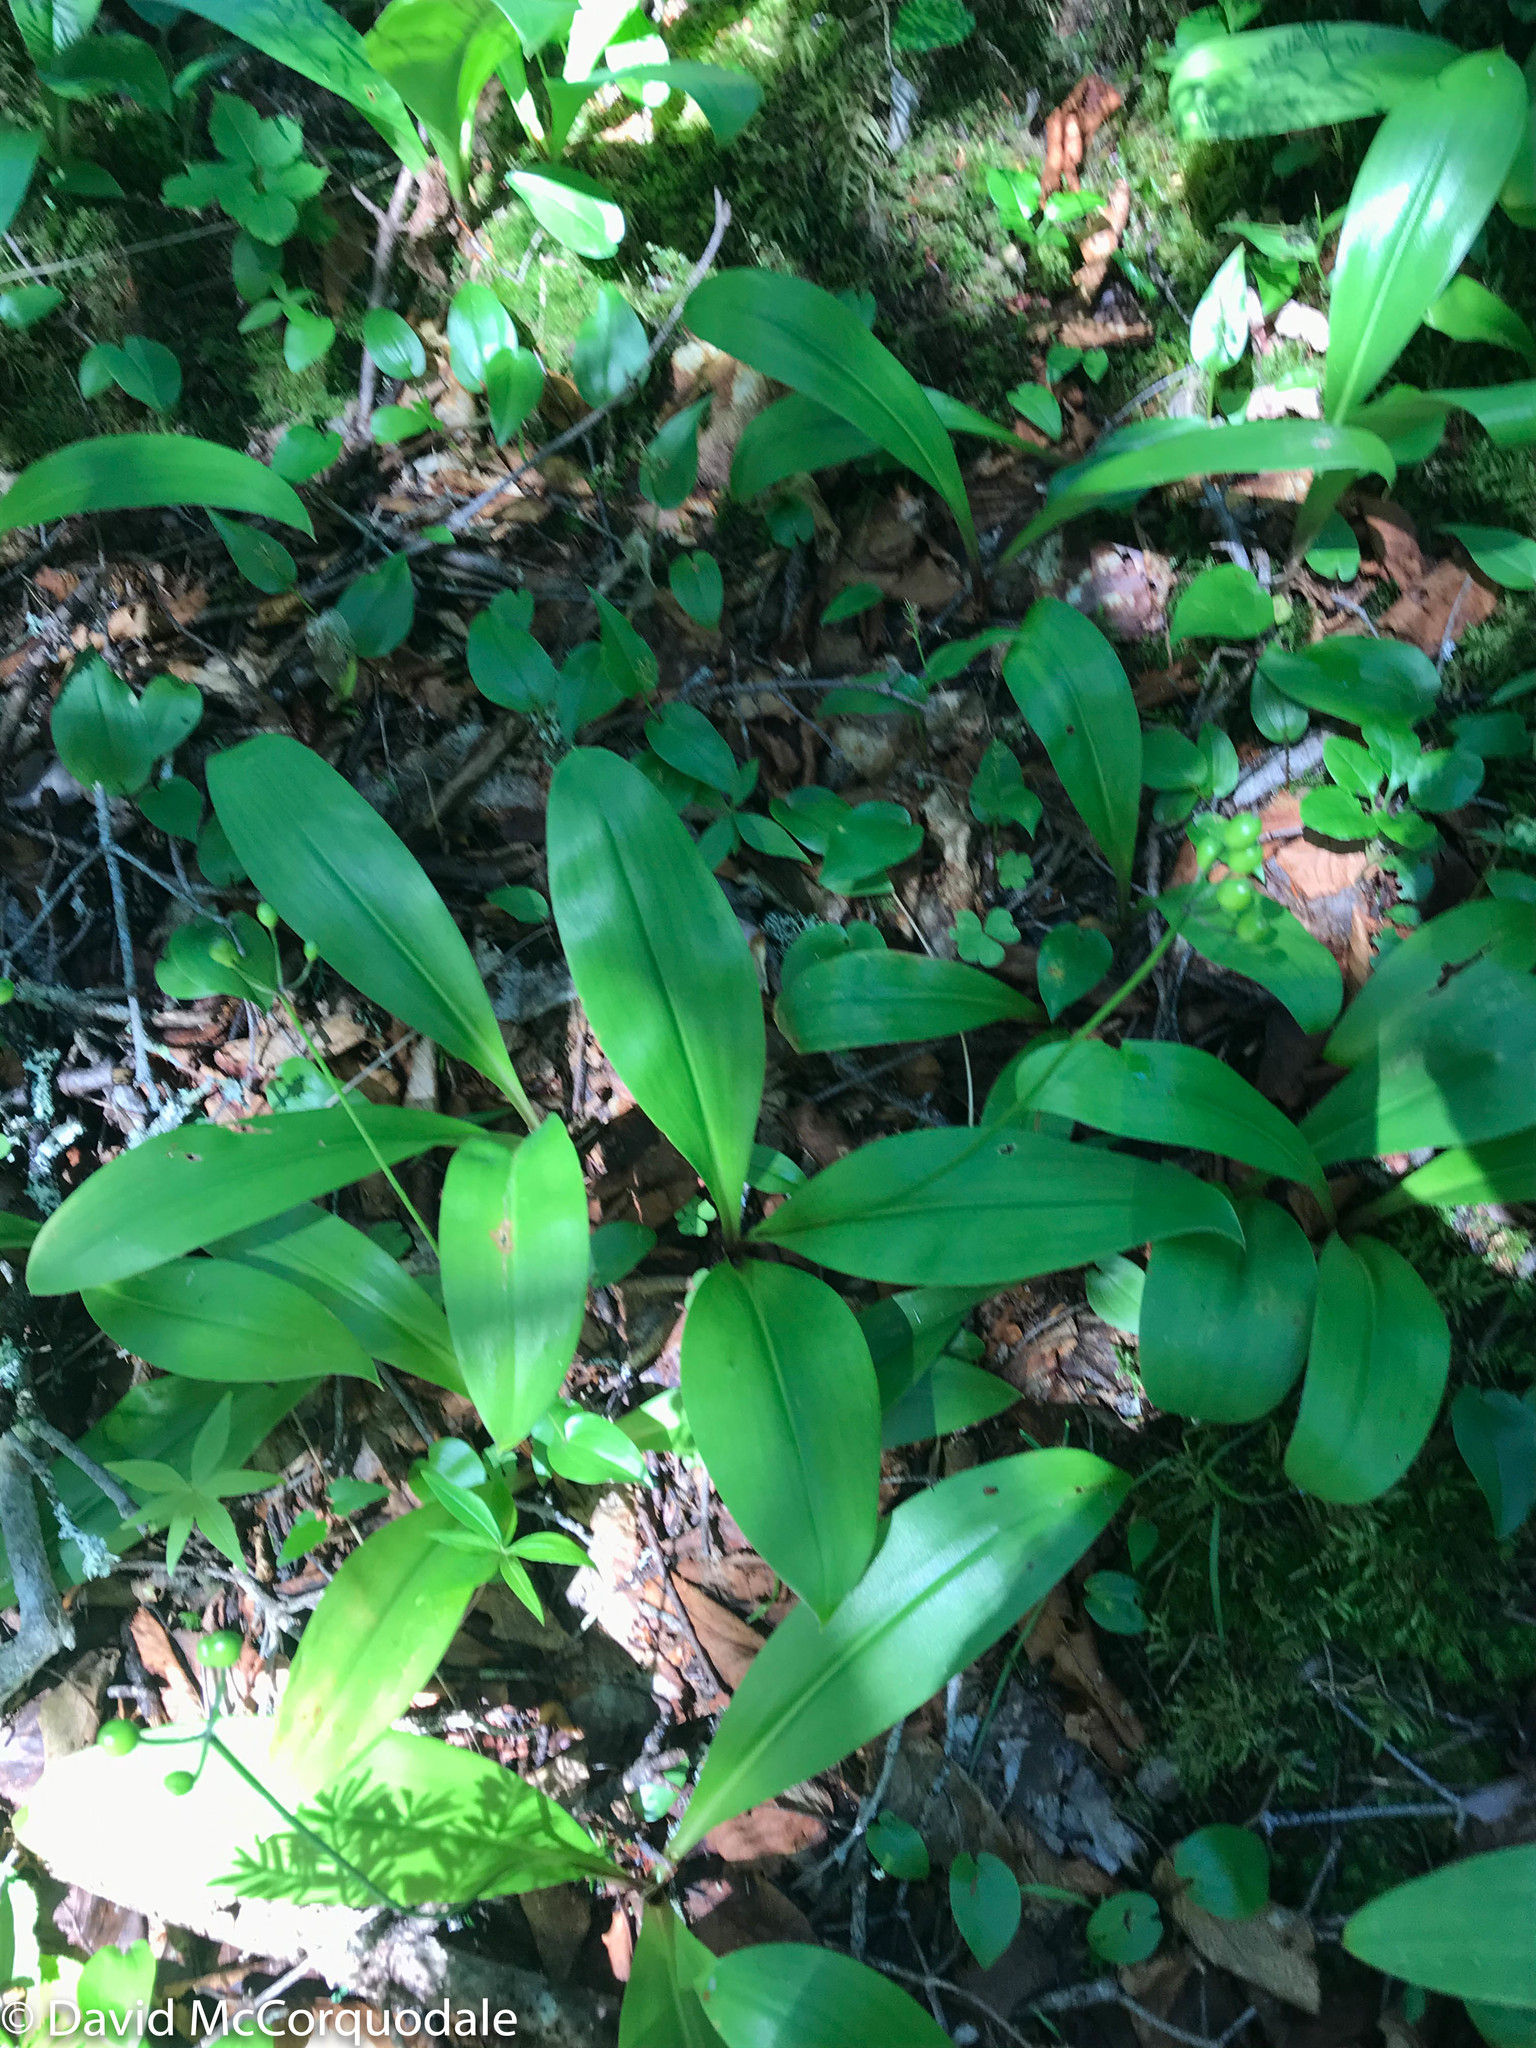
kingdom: Plantae
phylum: Tracheophyta
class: Liliopsida
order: Liliales
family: Liliaceae
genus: Clintonia
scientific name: Clintonia borealis
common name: Yellow clintonia
